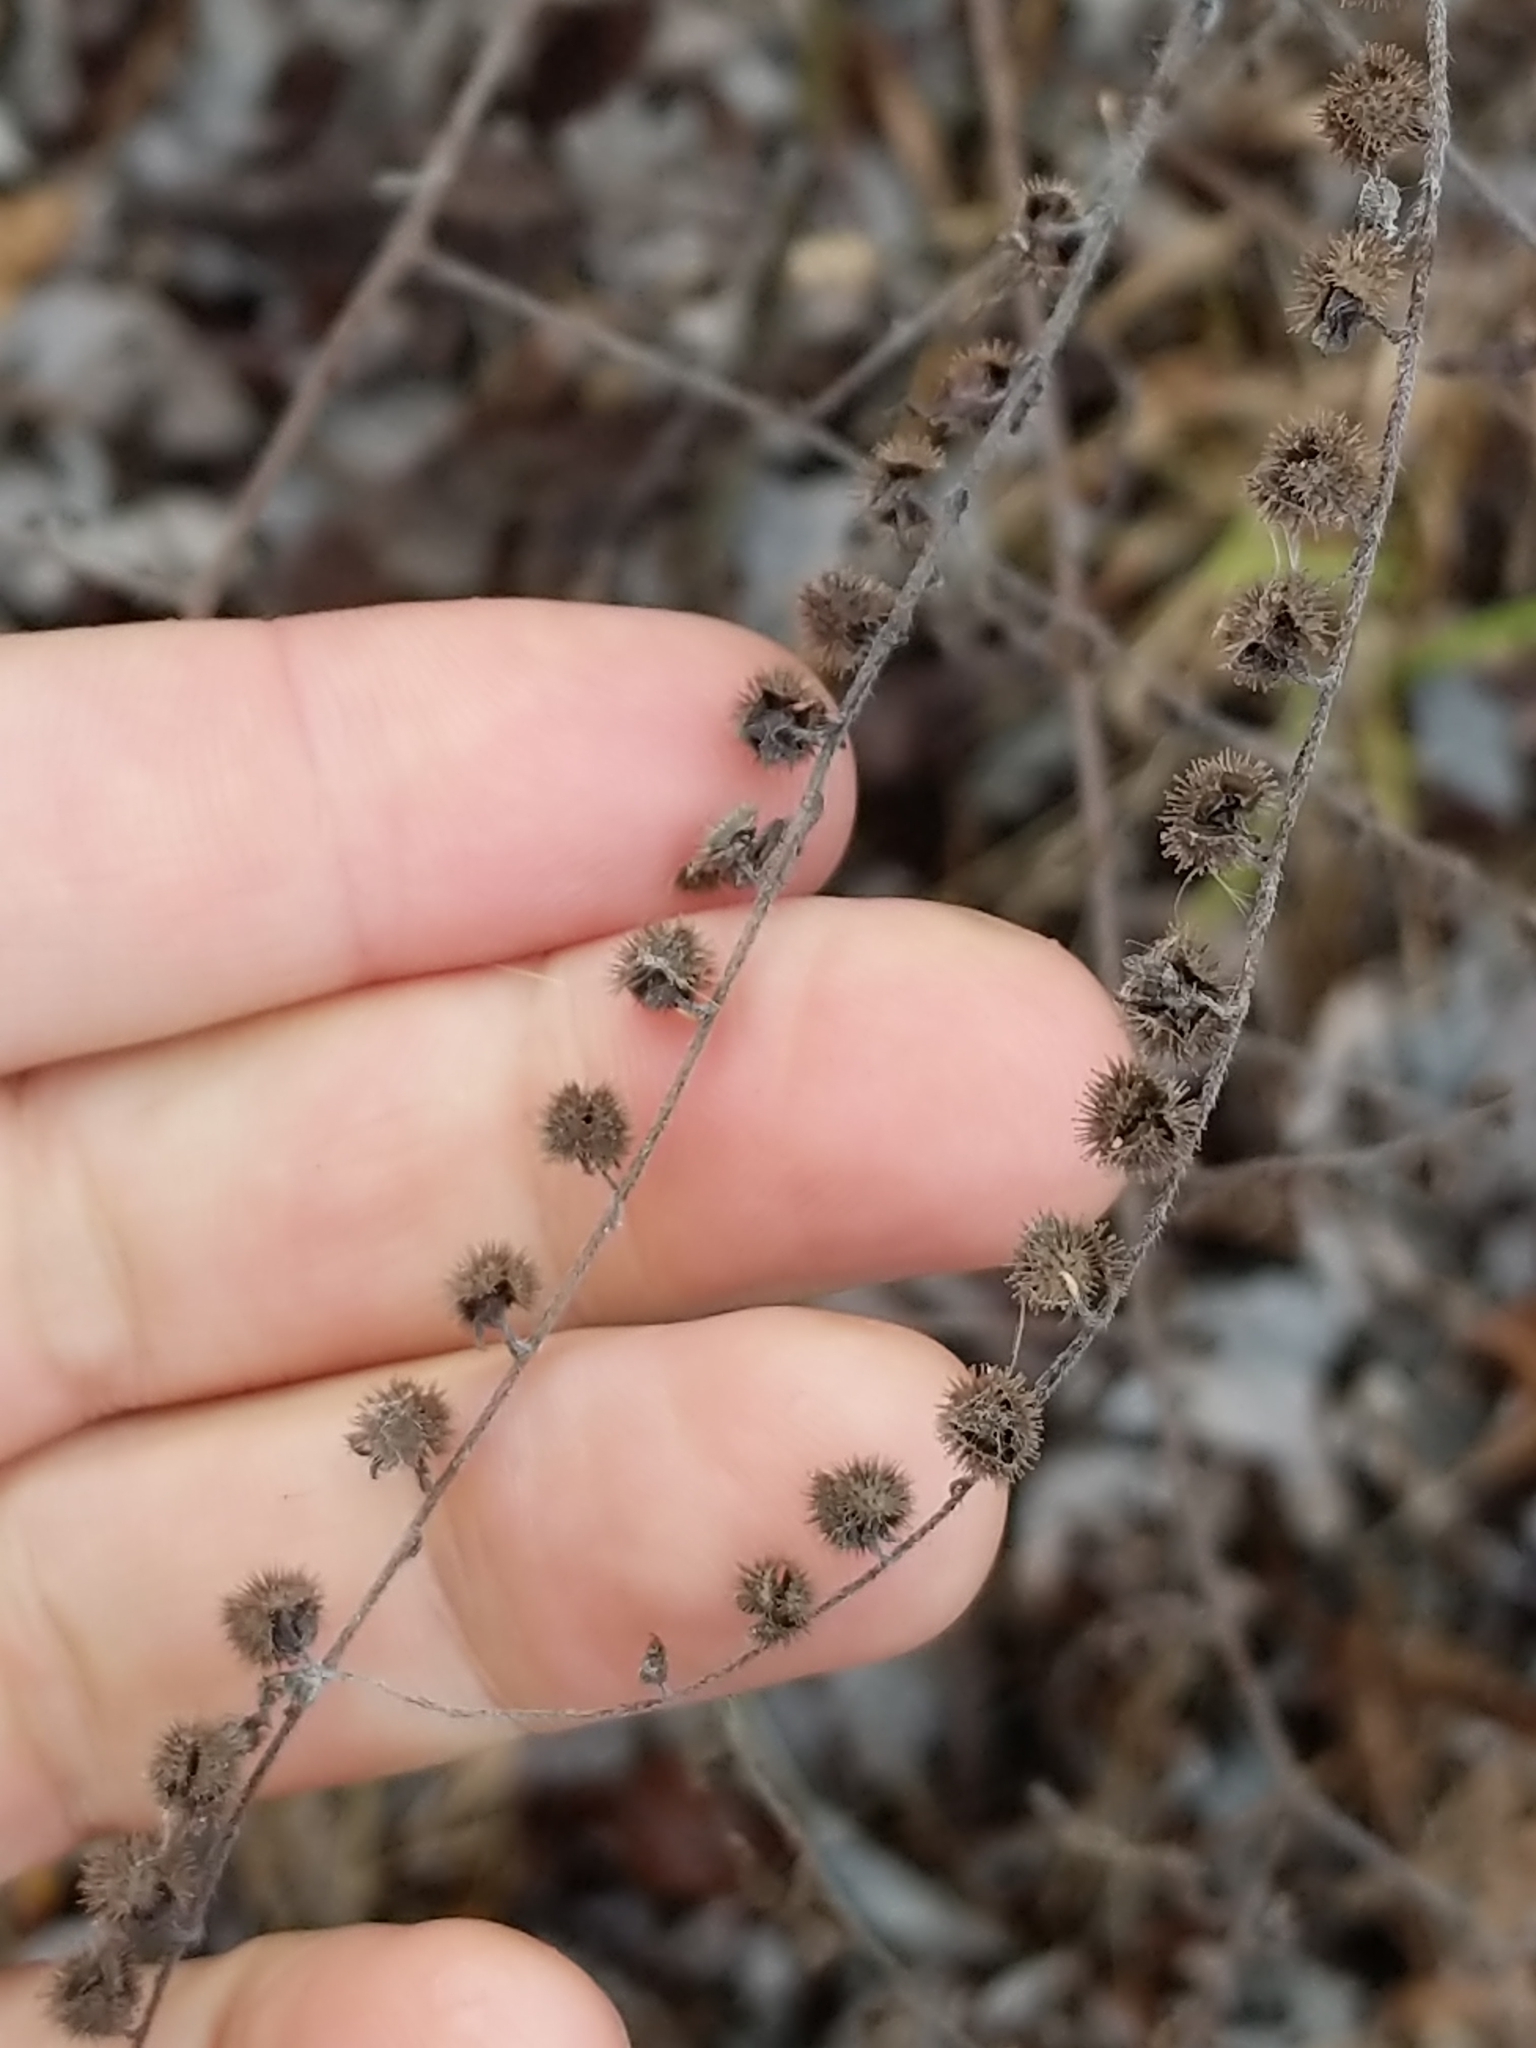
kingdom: Plantae
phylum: Tracheophyta
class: Magnoliopsida
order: Boraginales
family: Boraginaceae
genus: Hackelia
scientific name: Hackelia virginiana
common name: Beggar's-lice
